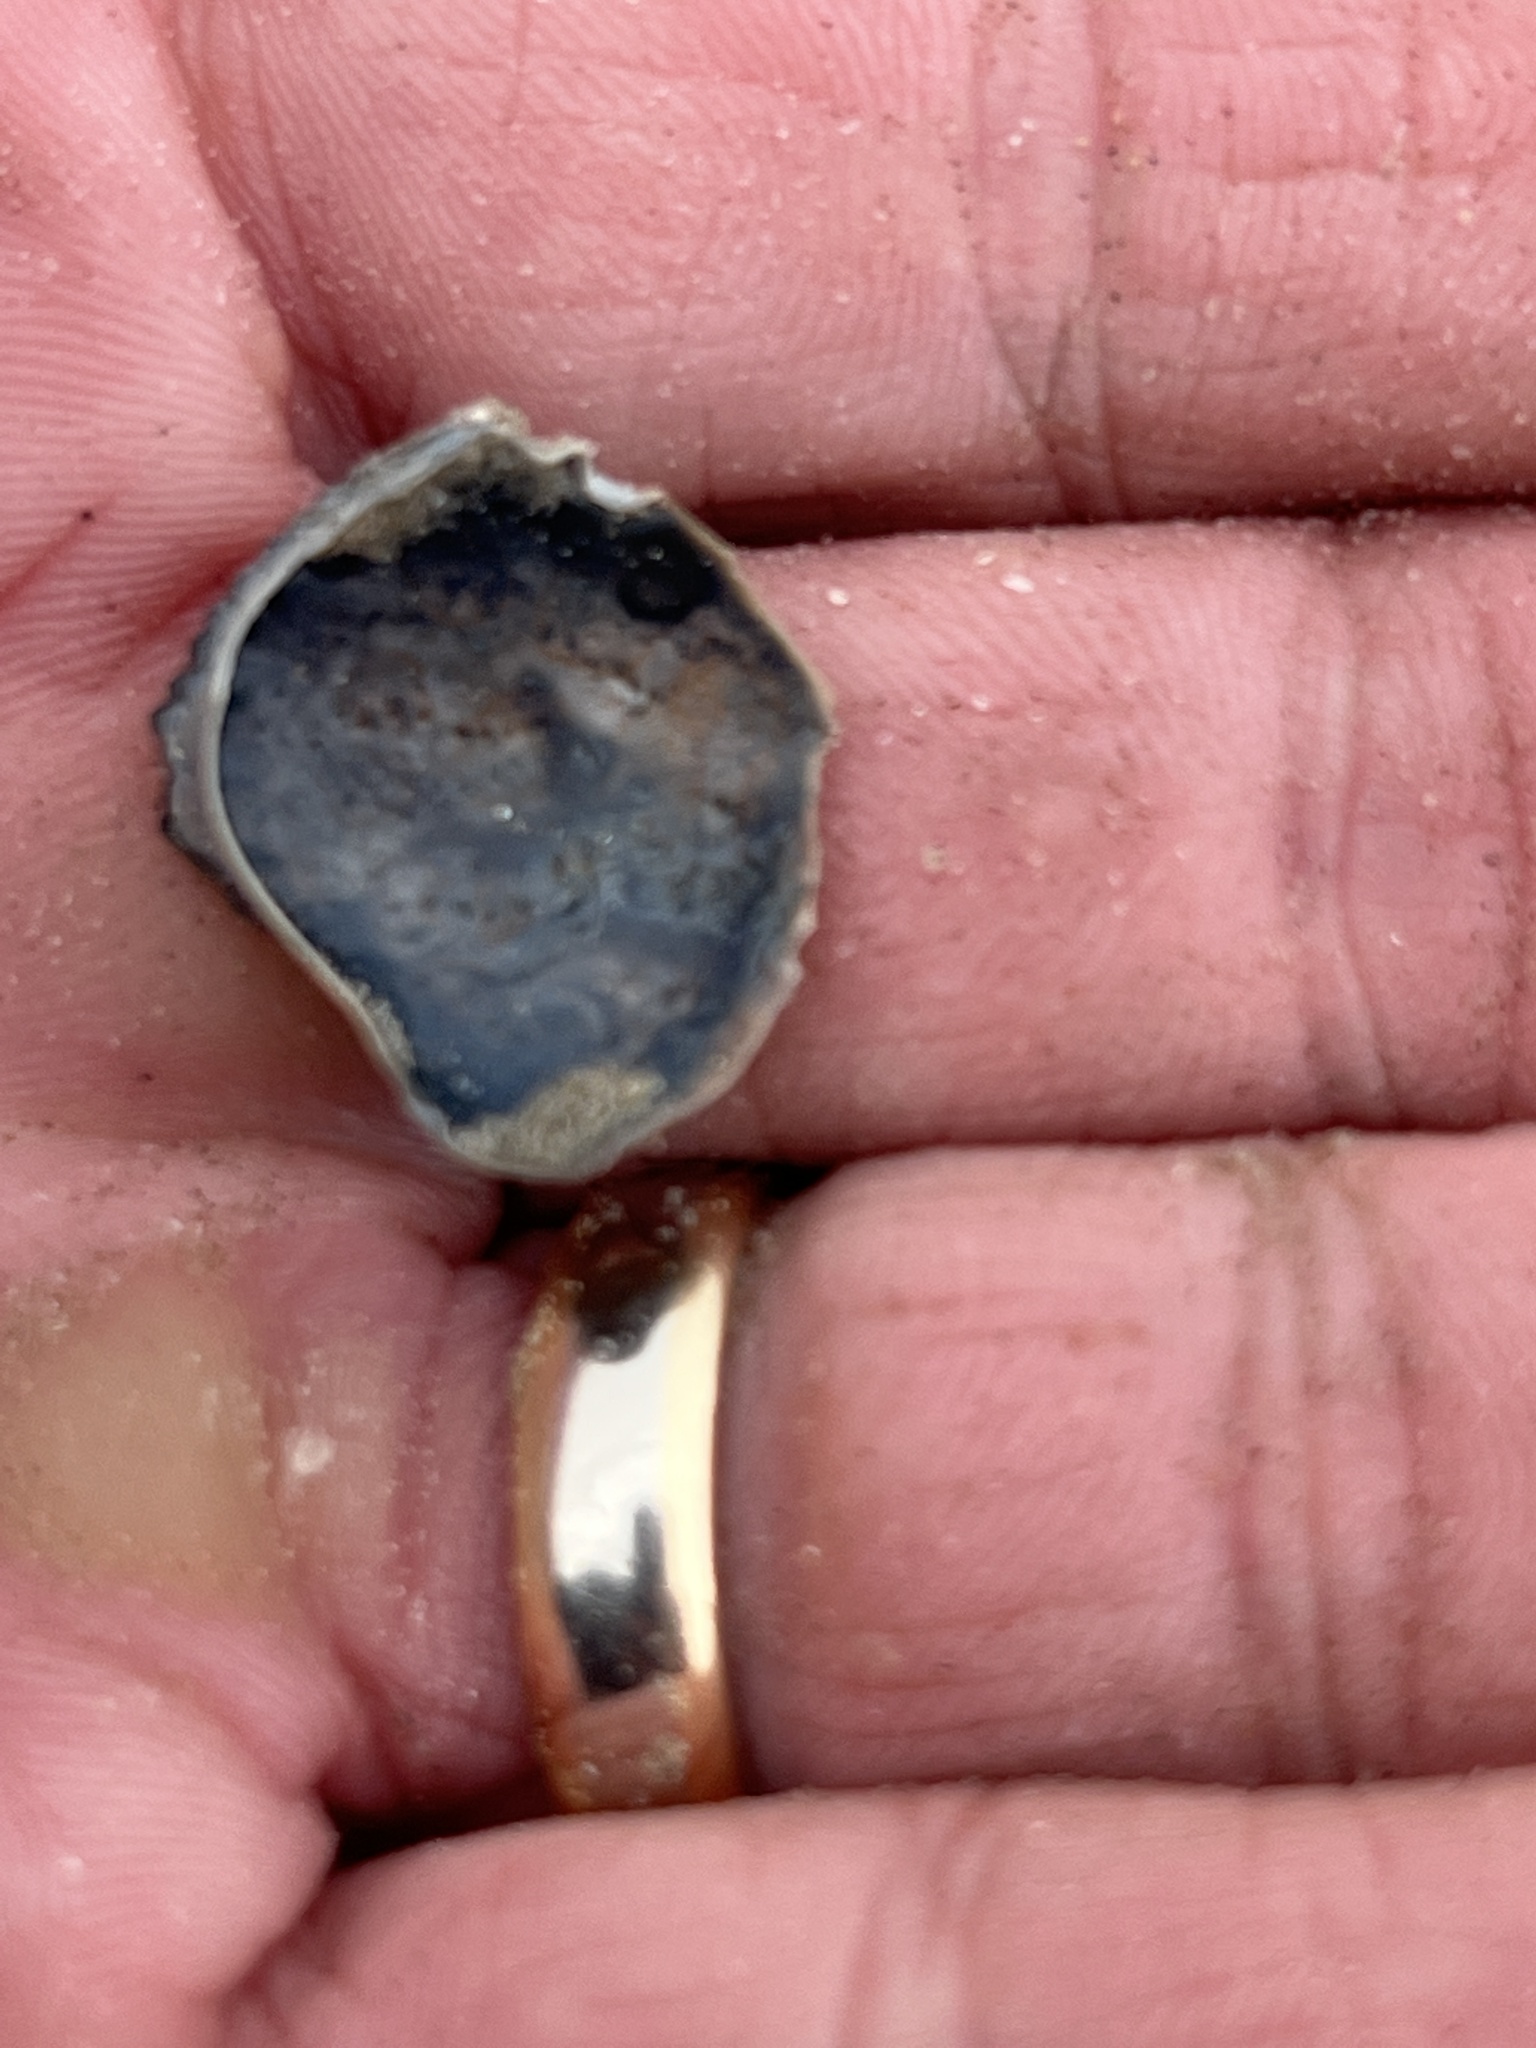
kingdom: Animalia
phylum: Arthropoda
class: Malacostraca
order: Decapoda
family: Aethridae
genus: Hepatus
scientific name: Hepatus epheliticus
